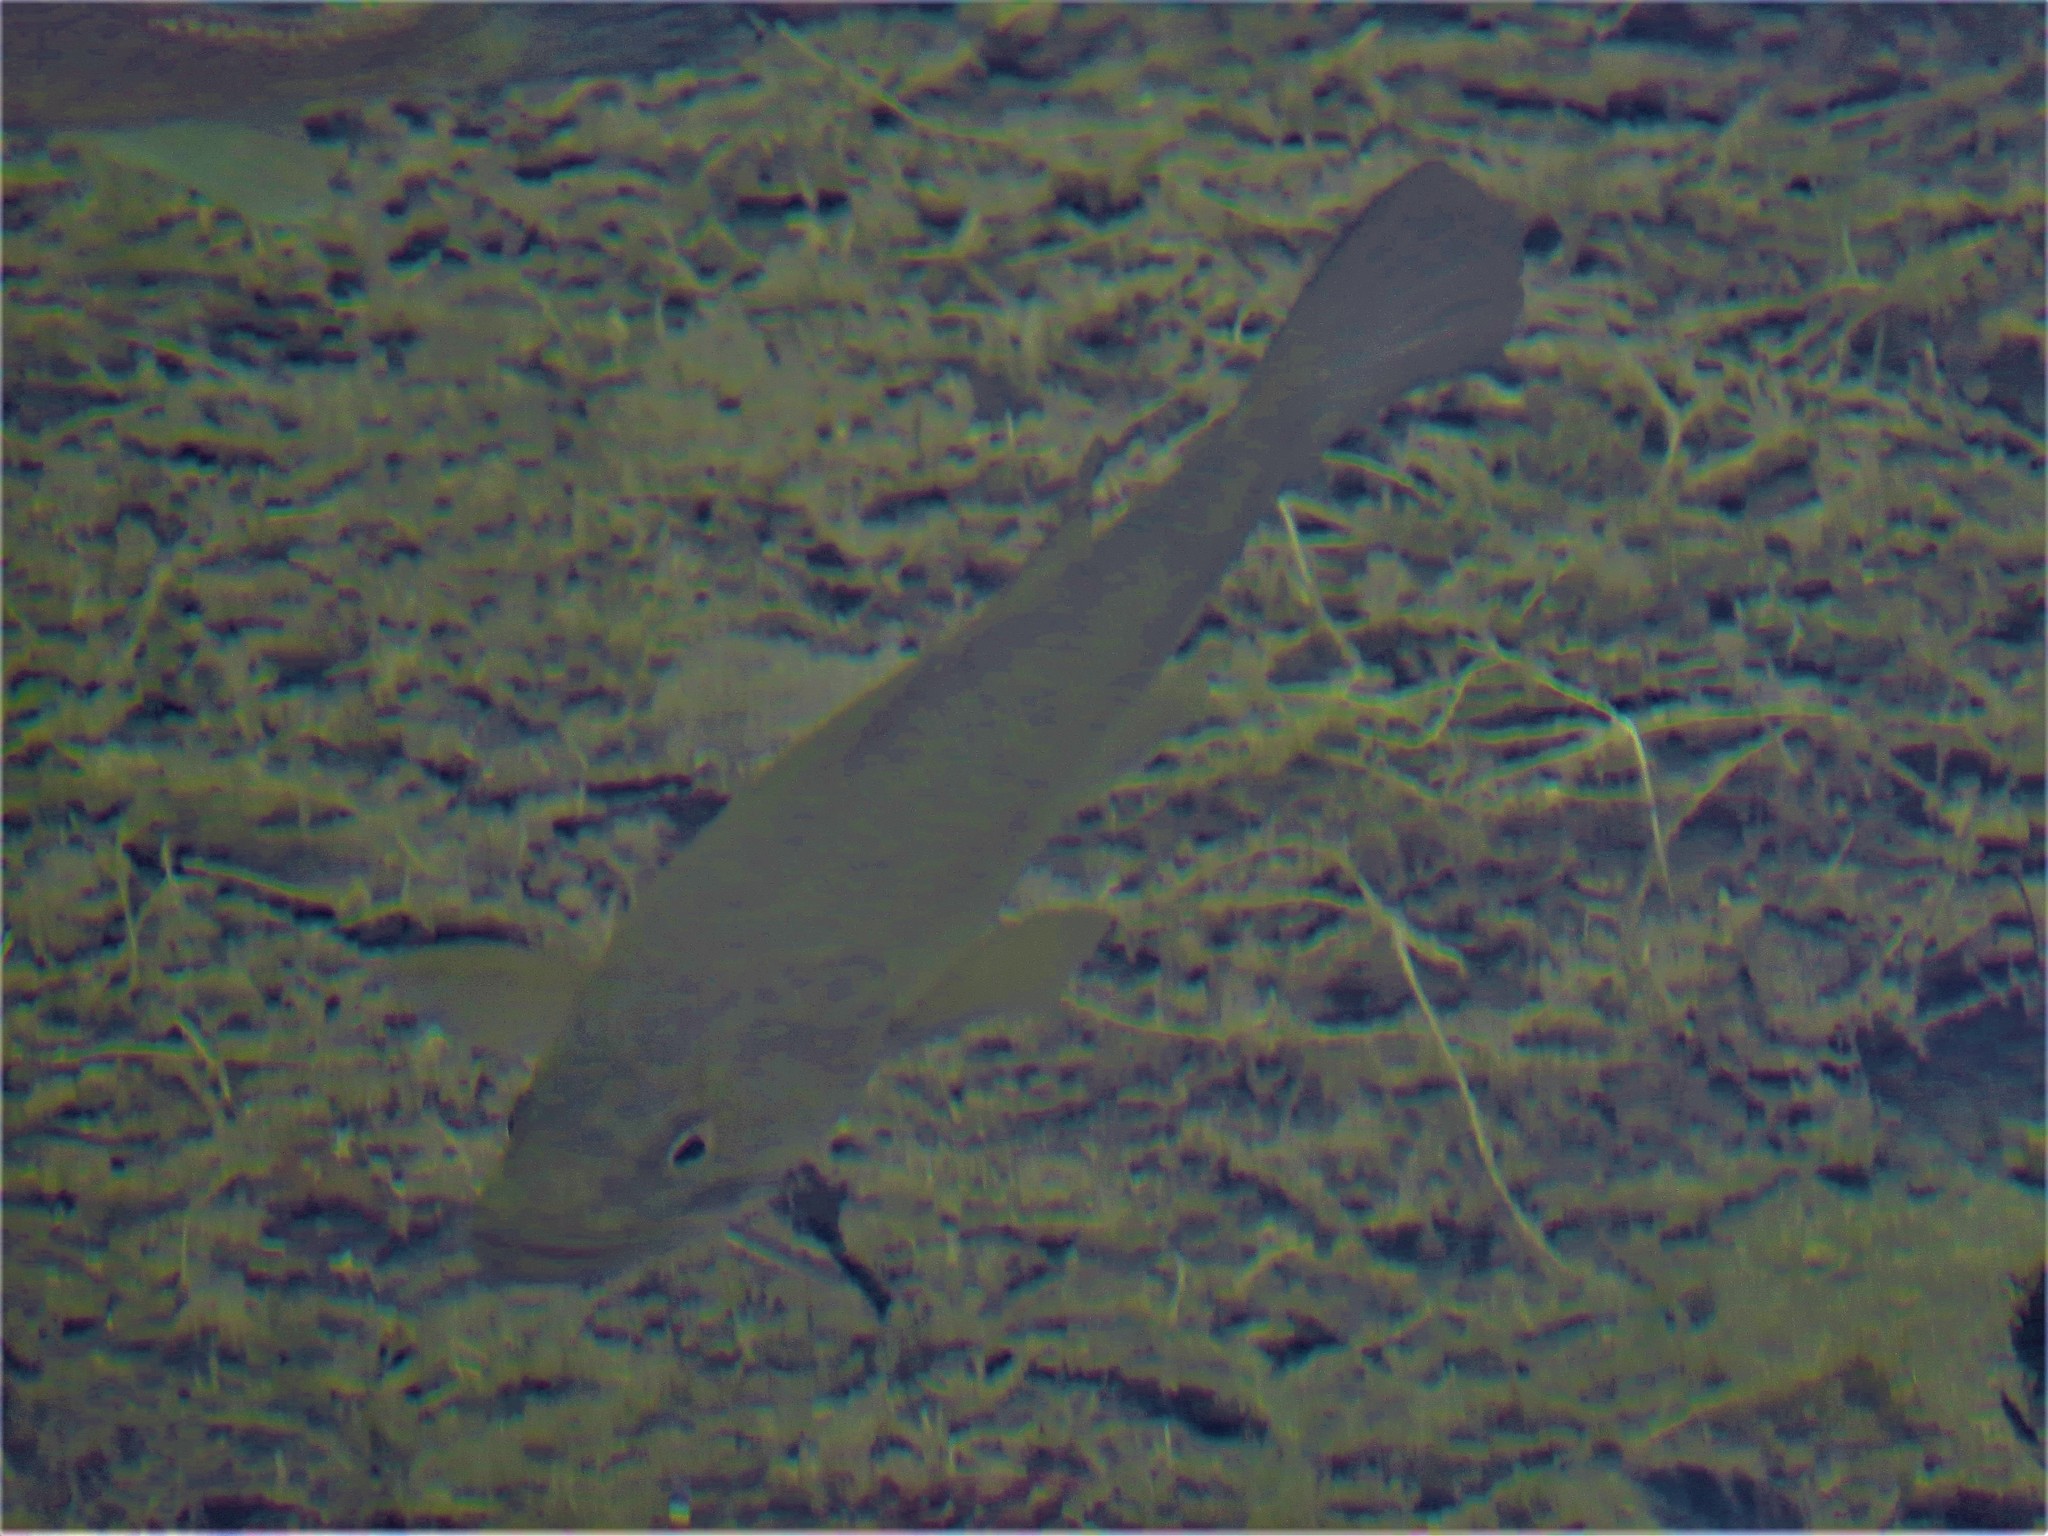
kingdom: Animalia
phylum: Chordata
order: Perciformes
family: Centrarchidae
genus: Micropterus
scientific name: Micropterus
